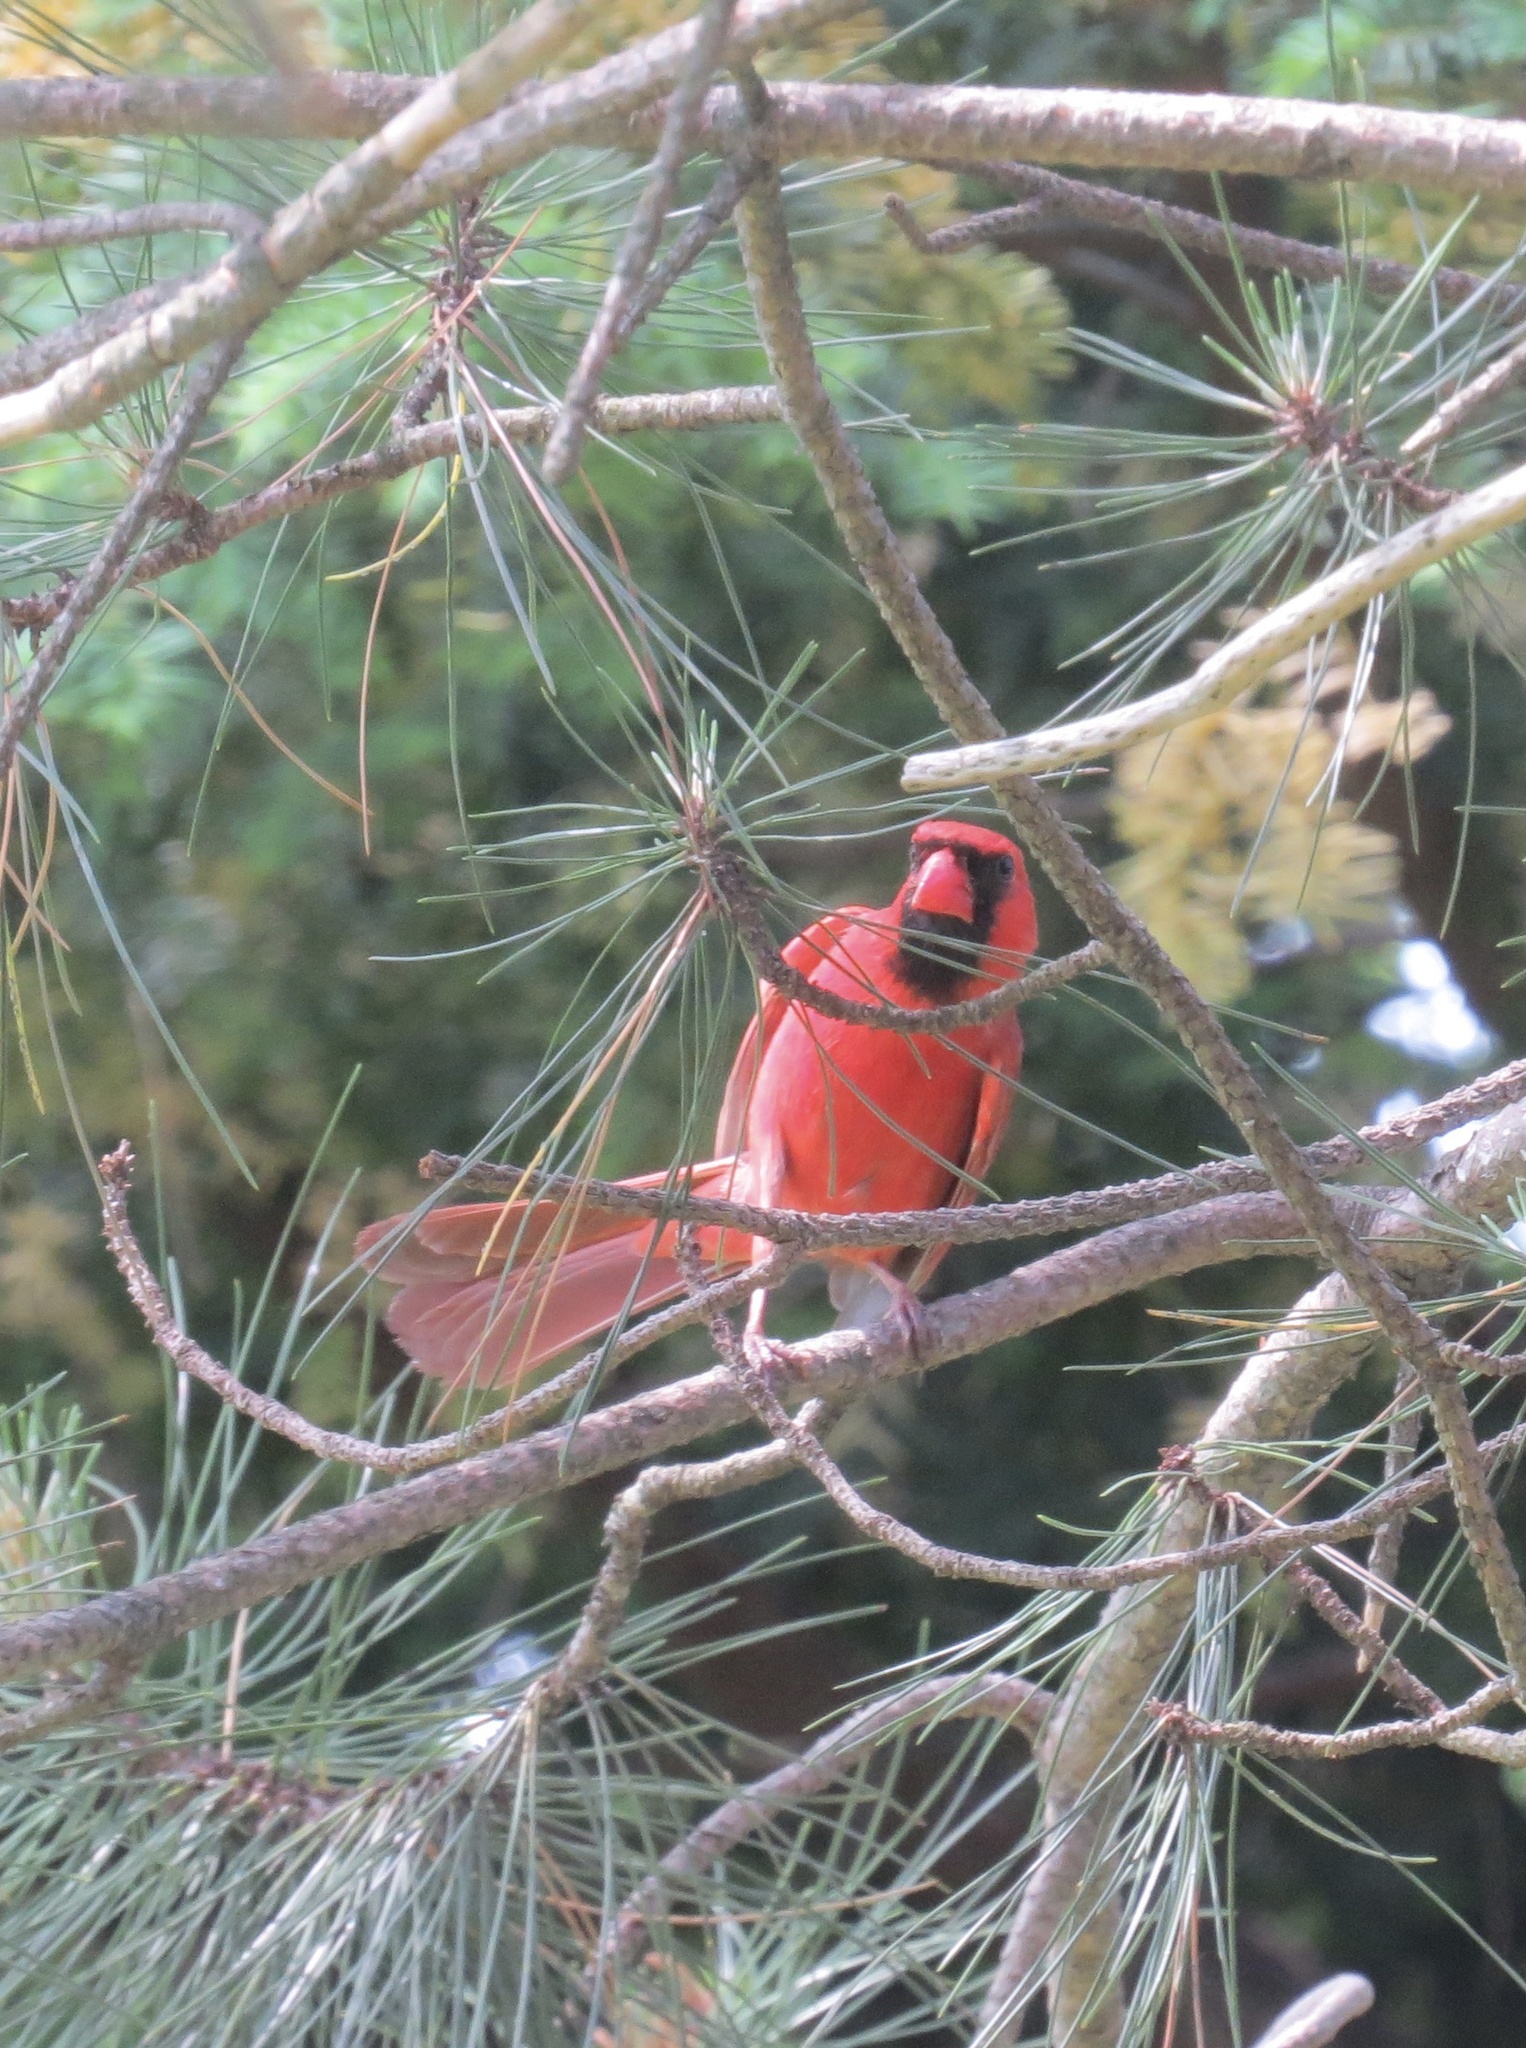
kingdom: Animalia
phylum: Chordata
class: Aves
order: Passeriformes
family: Cardinalidae
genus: Cardinalis
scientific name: Cardinalis cardinalis
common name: Northern cardinal
